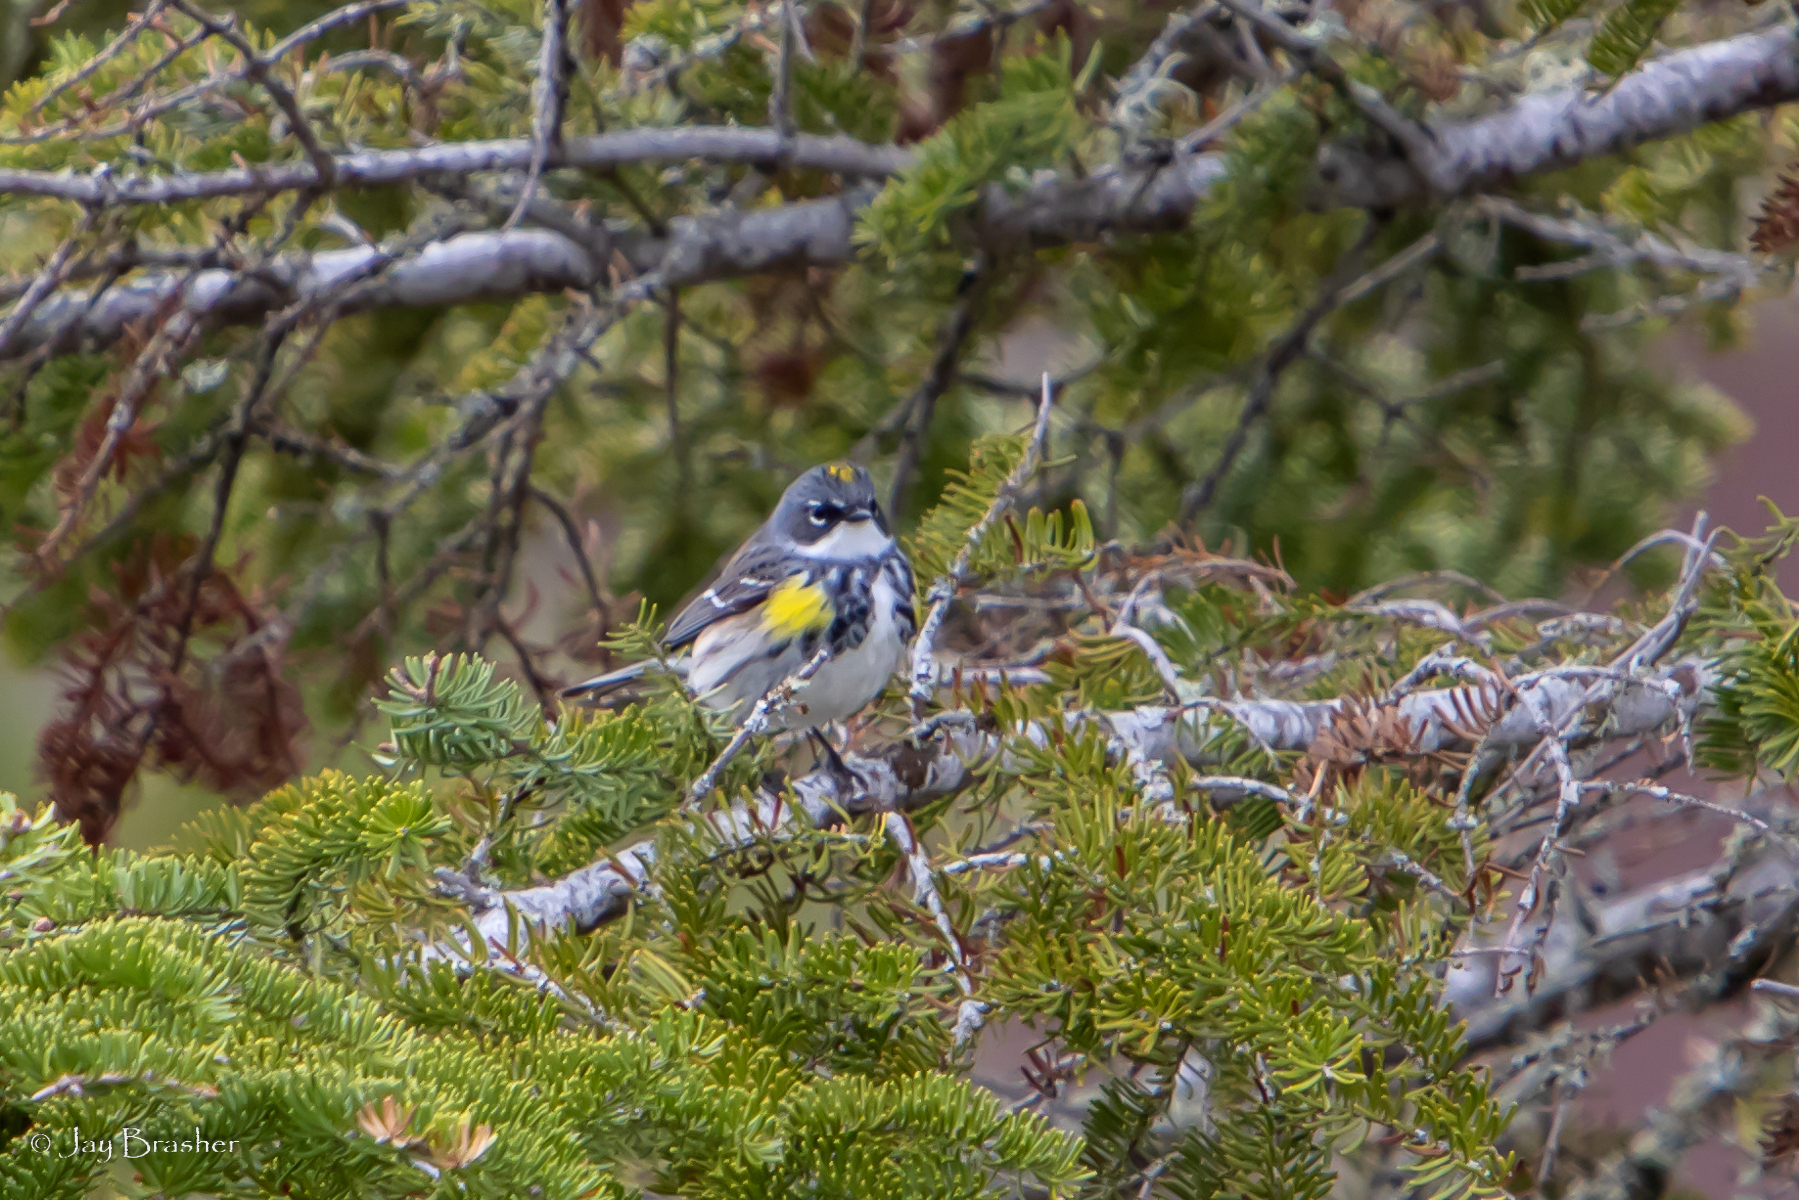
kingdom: Animalia
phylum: Chordata
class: Aves
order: Passeriformes
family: Parulidae
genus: Setophaga
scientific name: Setophaga coronata
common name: Myrtle warbler
